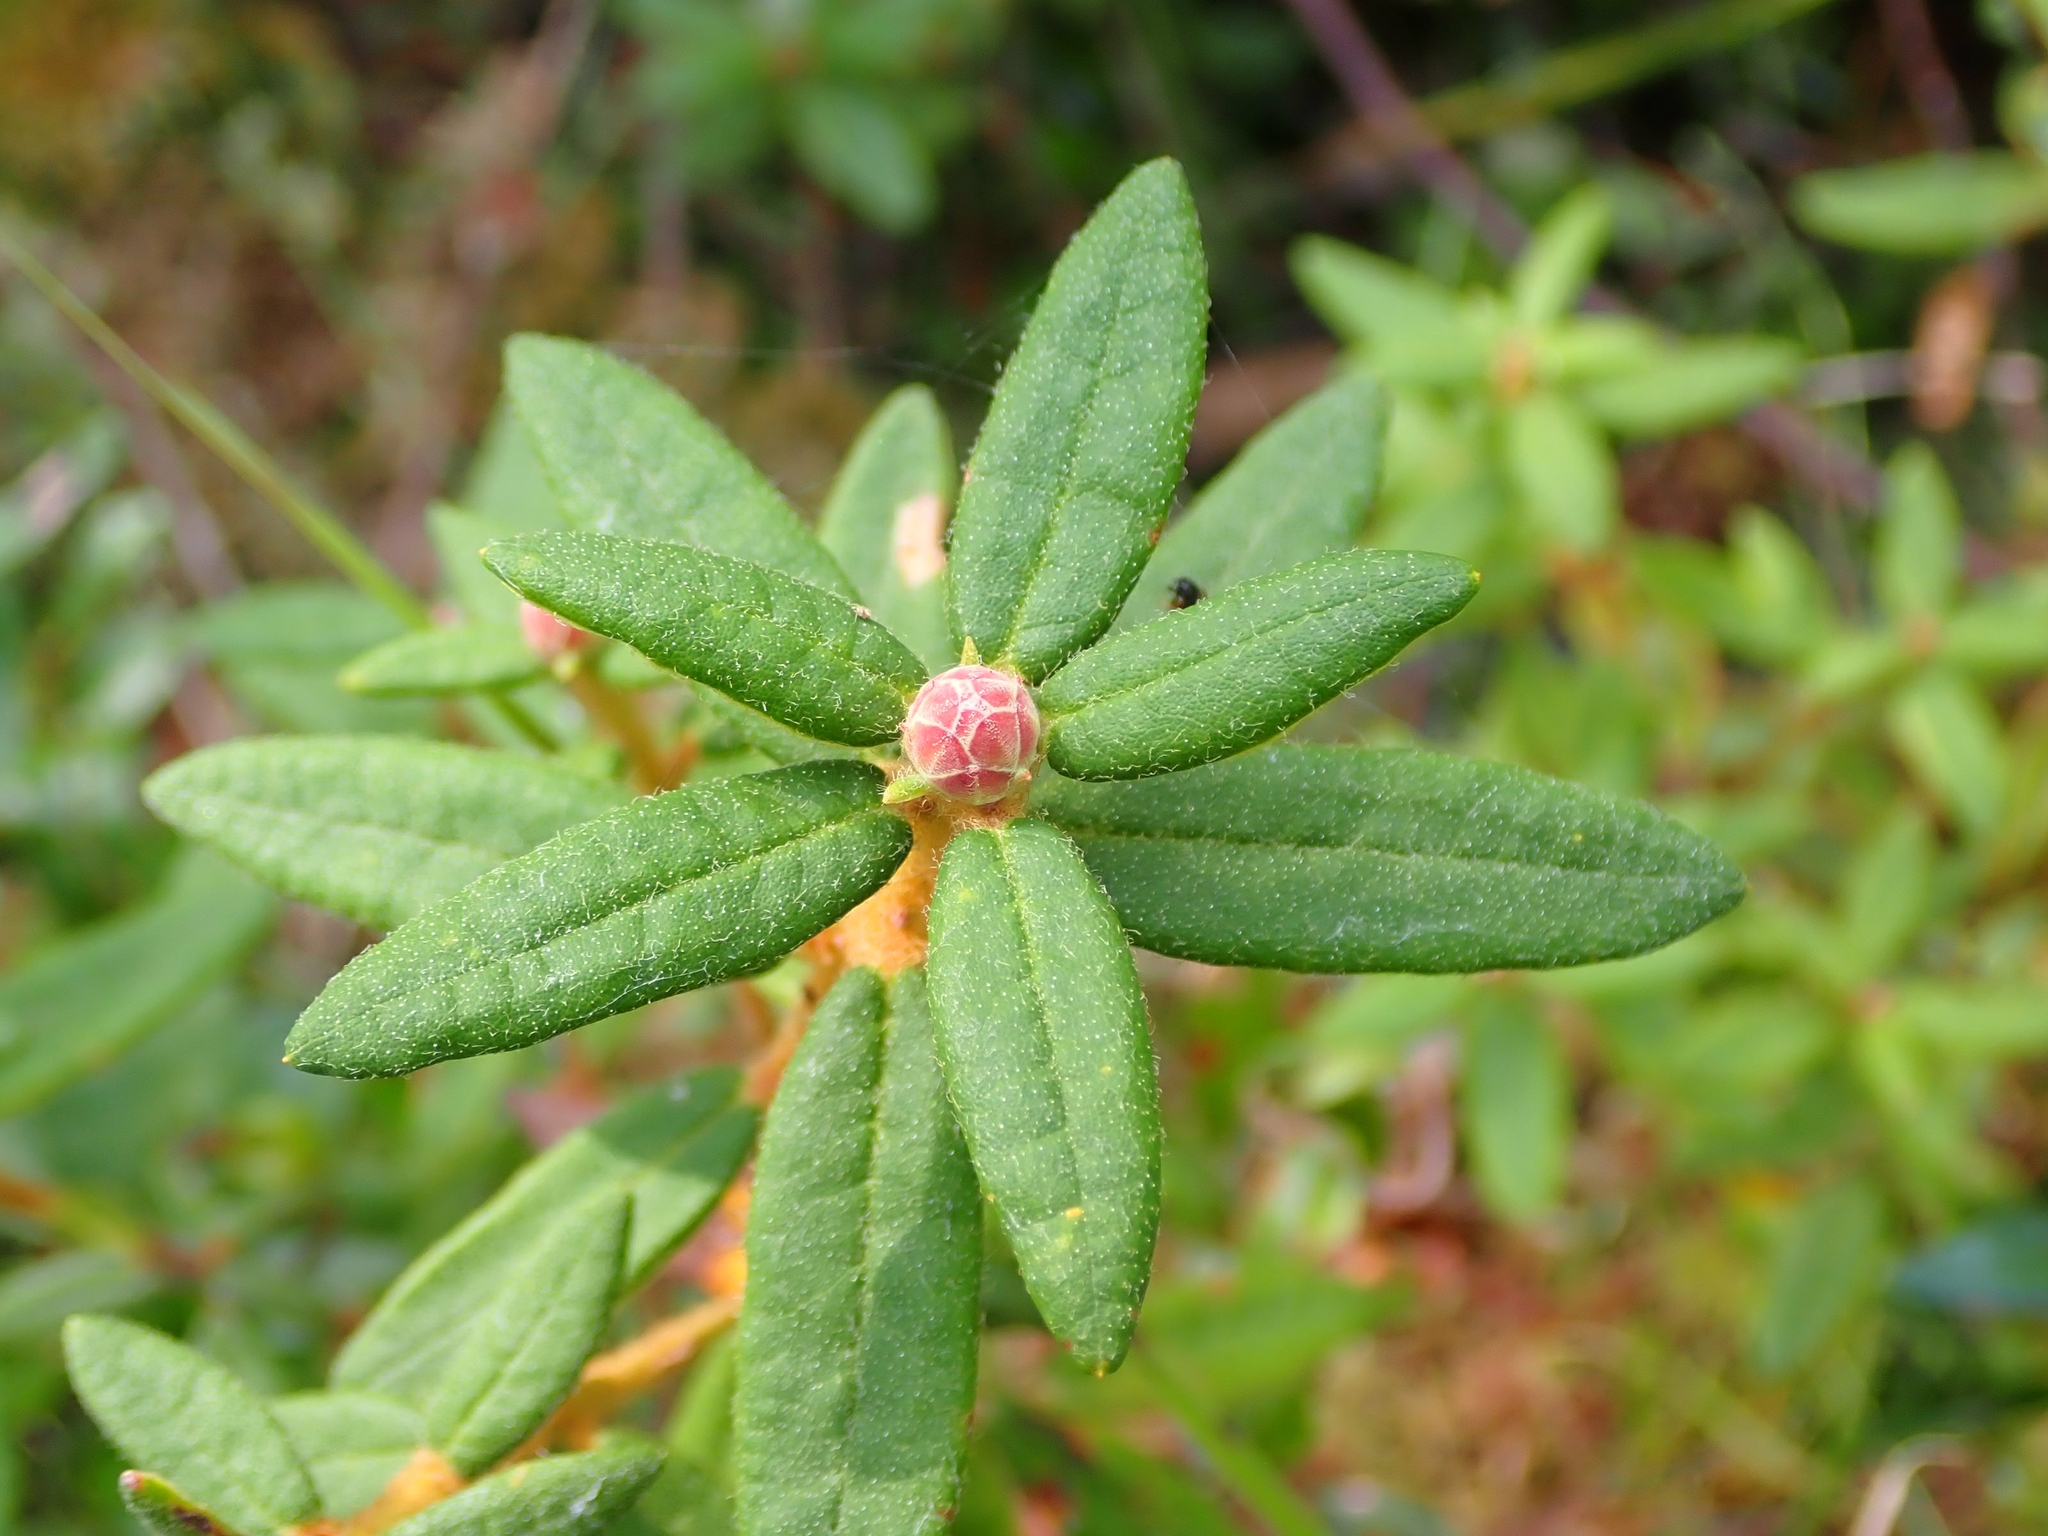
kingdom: Plantae
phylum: Tracheophyta
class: Magnoliopsida
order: Ericales
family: Ericaceae
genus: Rhododendron
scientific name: Rhododendron groenlandicum
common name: Bog labrador tea
